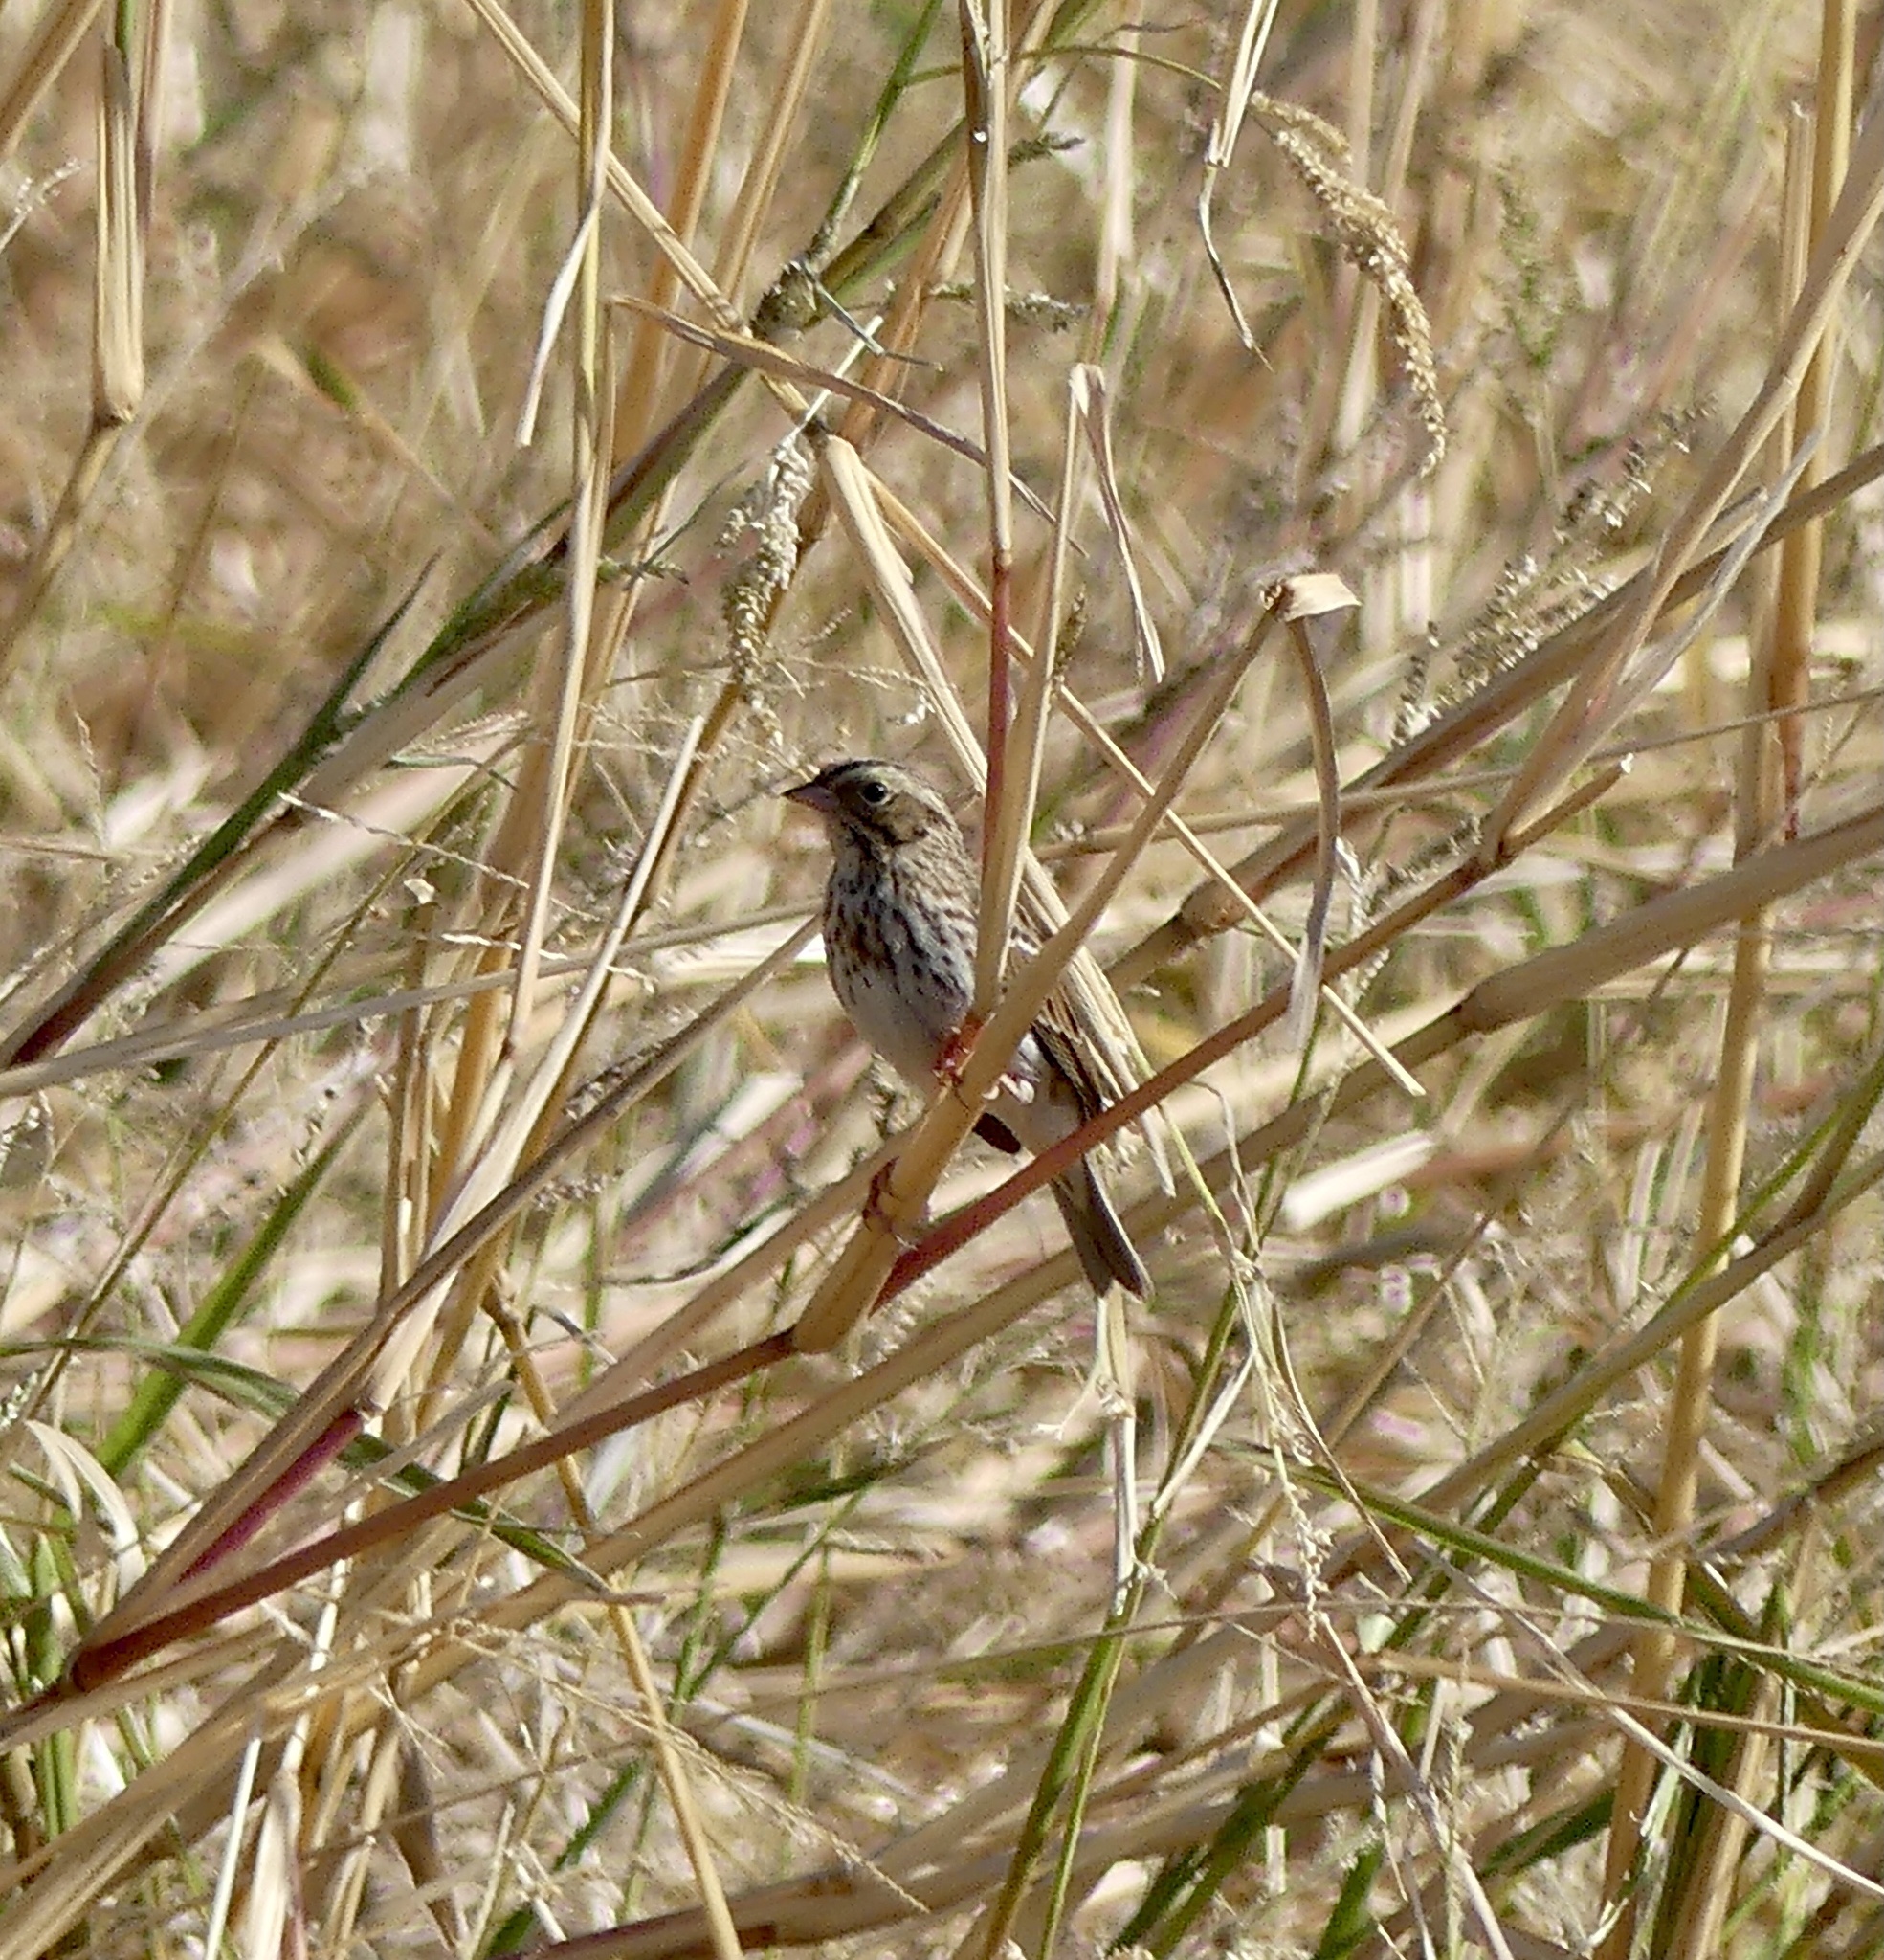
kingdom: Animalia
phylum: Chordata
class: Aves
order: Passeriformes
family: Passerellidae
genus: Passerculus
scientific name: Passerculus sandwichensis
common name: Savannah sparrow
